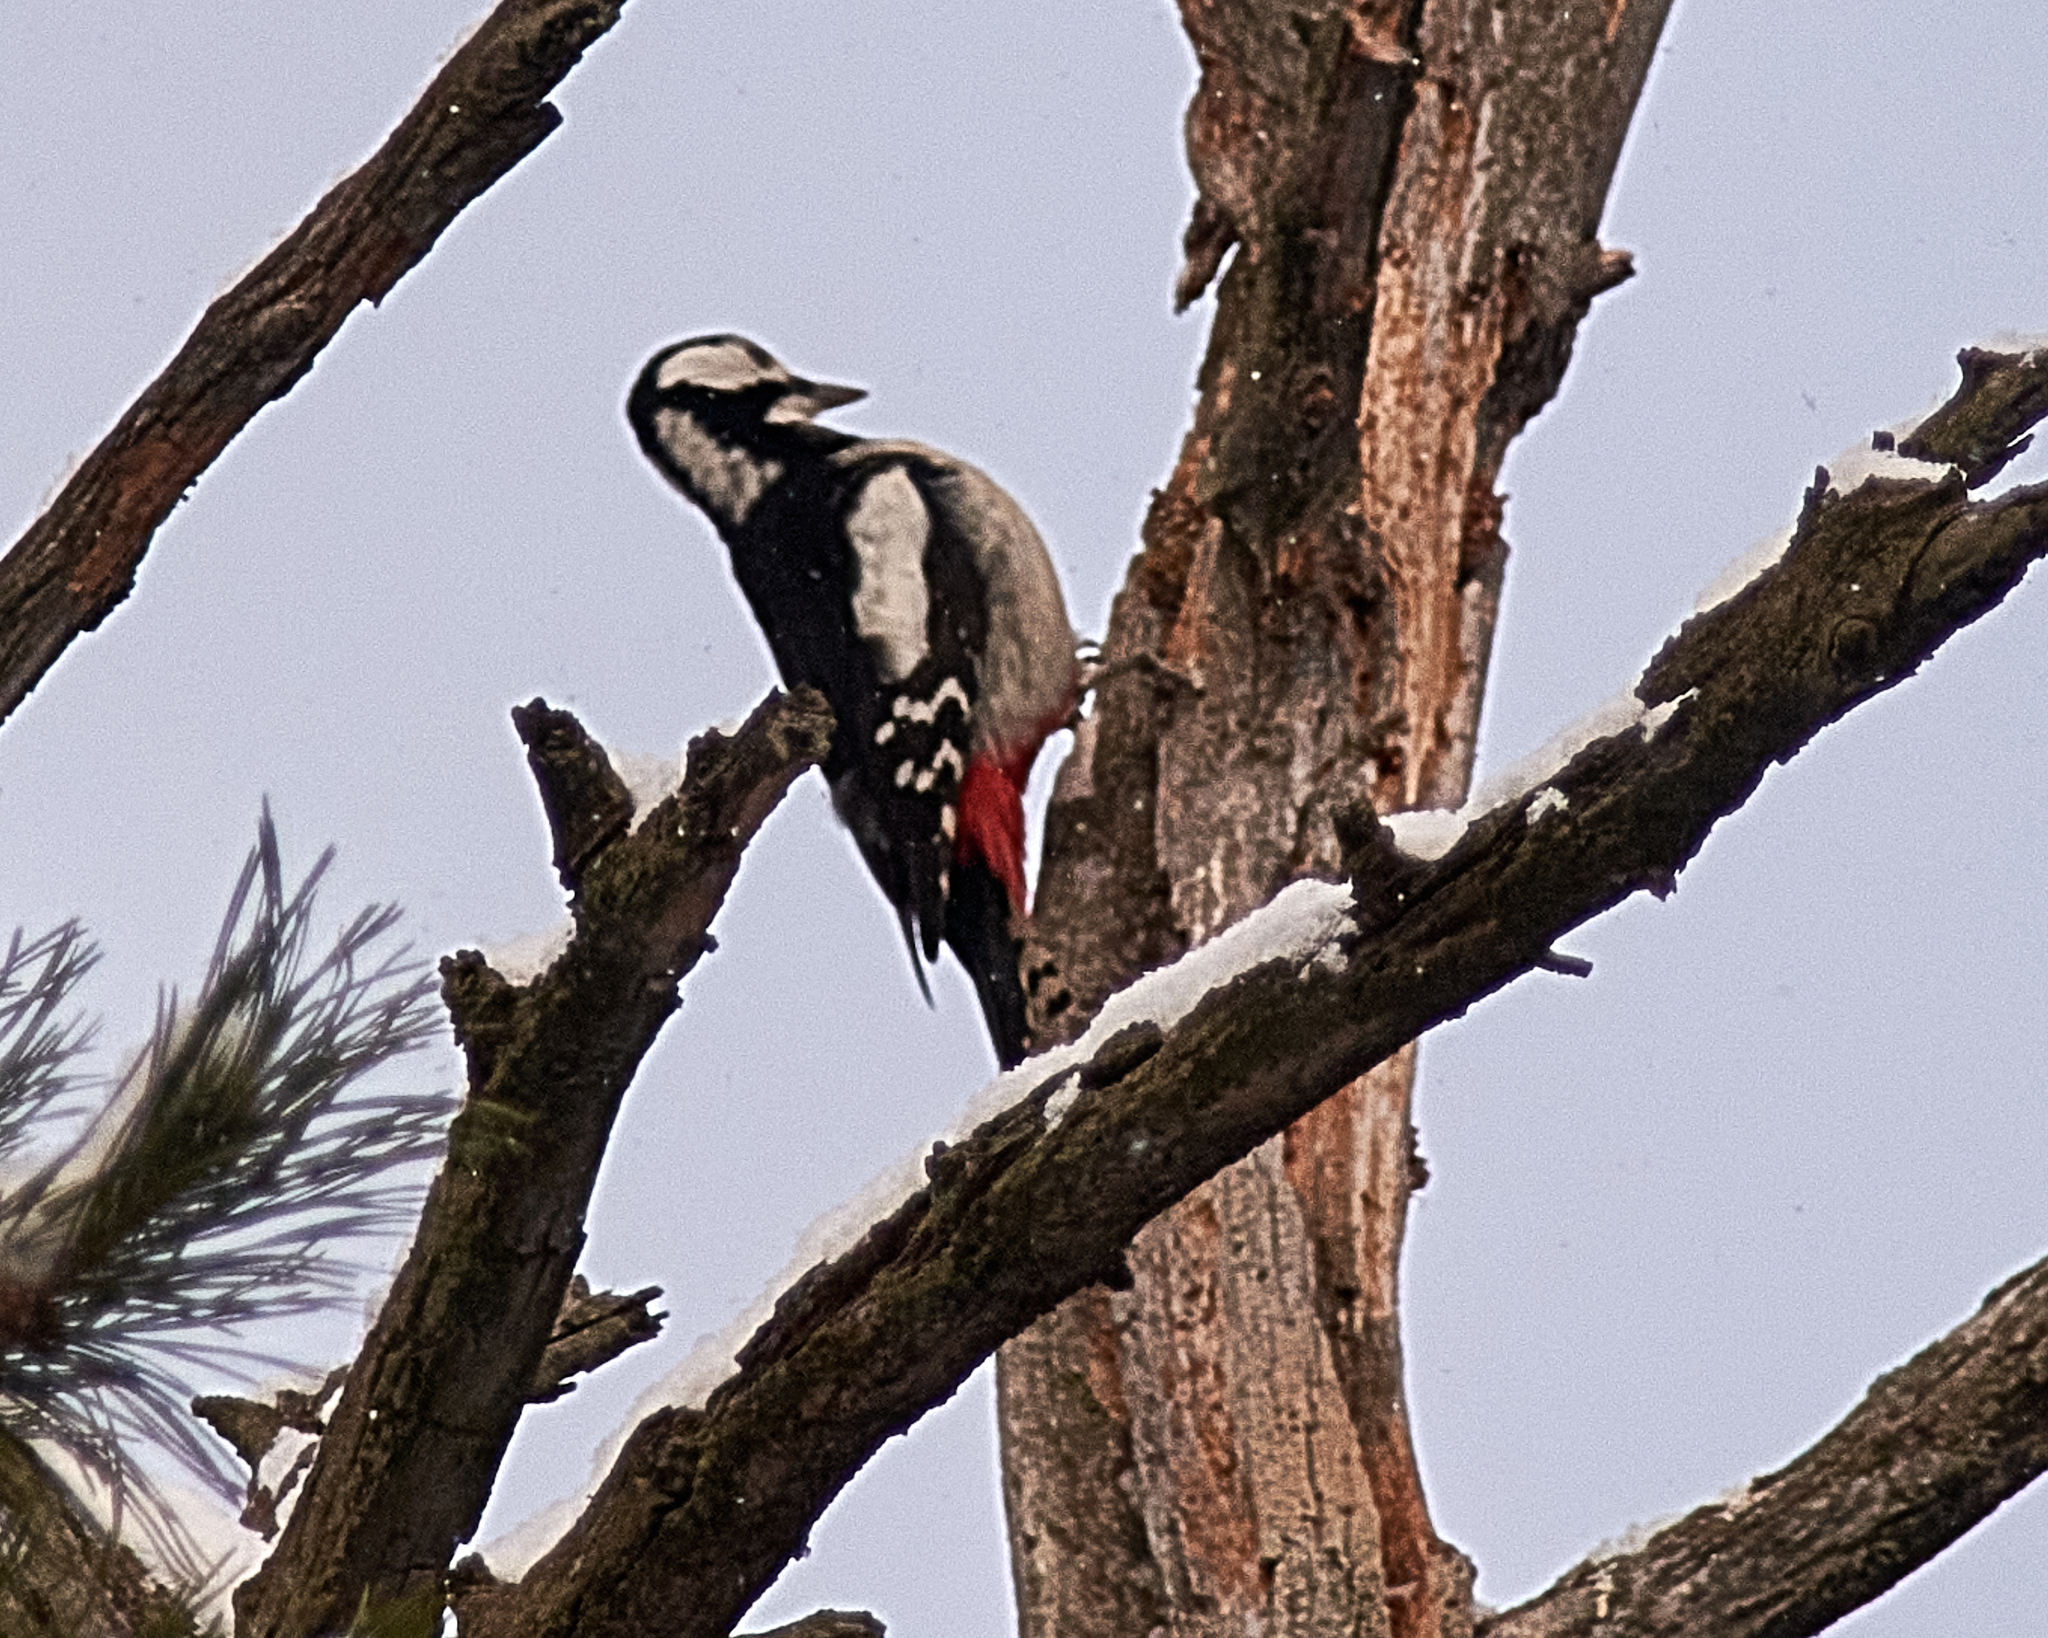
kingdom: Animalia
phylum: Chordata
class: Aves
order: Piciformes
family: Picidae
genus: Dendrocopos
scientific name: Dendrocopos major
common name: Great spotted woodpecker
